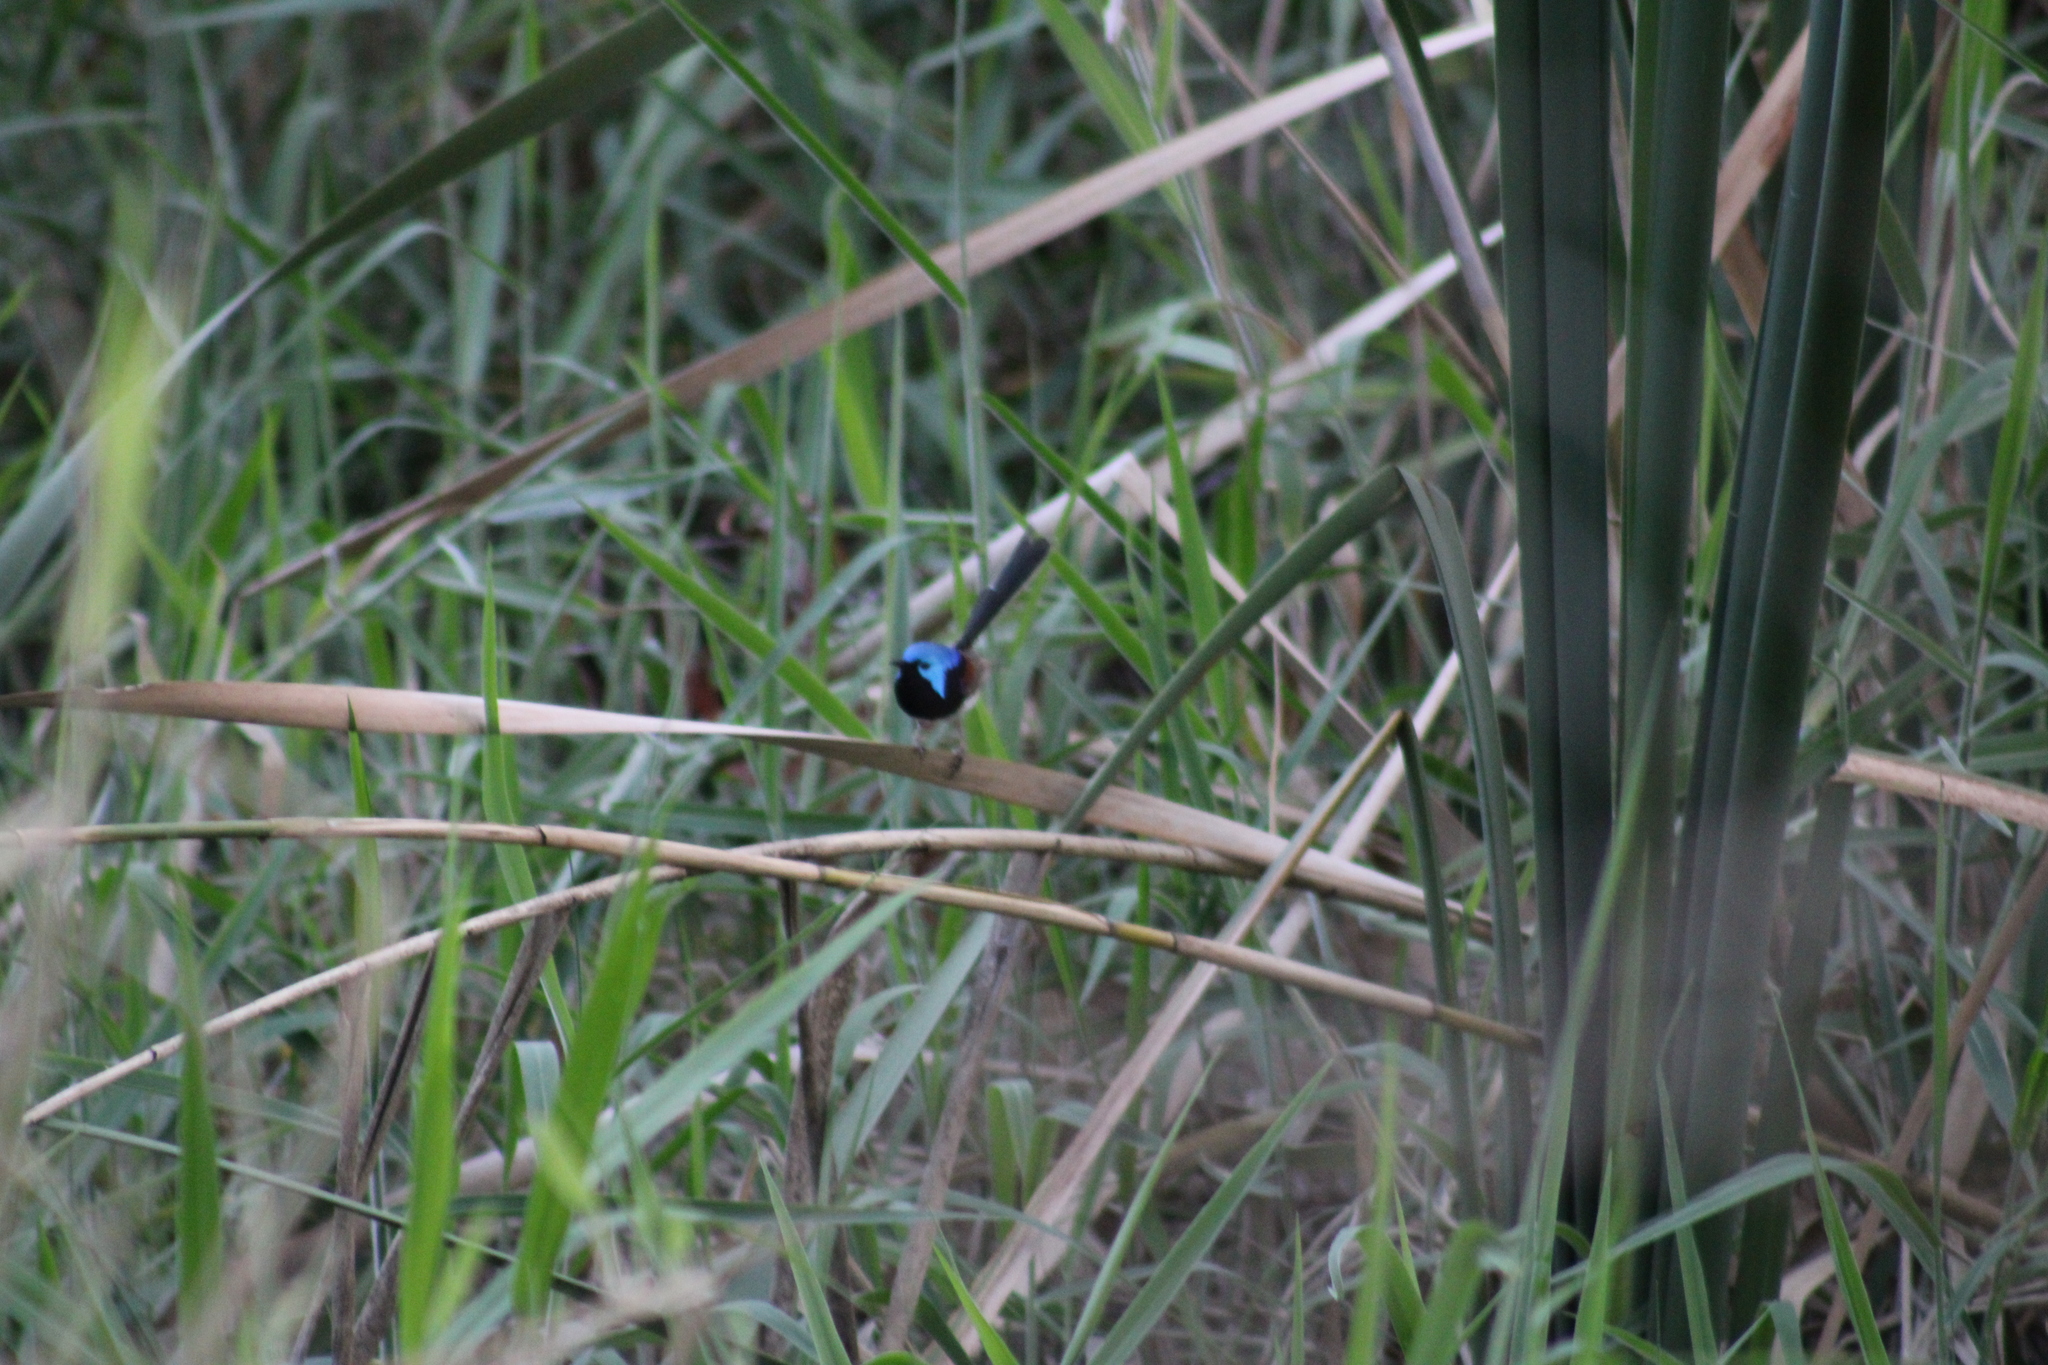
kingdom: Animalia
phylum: Chordata
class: Aves
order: Passeriformes
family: Maluridae
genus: Malurus
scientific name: Malurus lamberti
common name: Variegated fairywren
